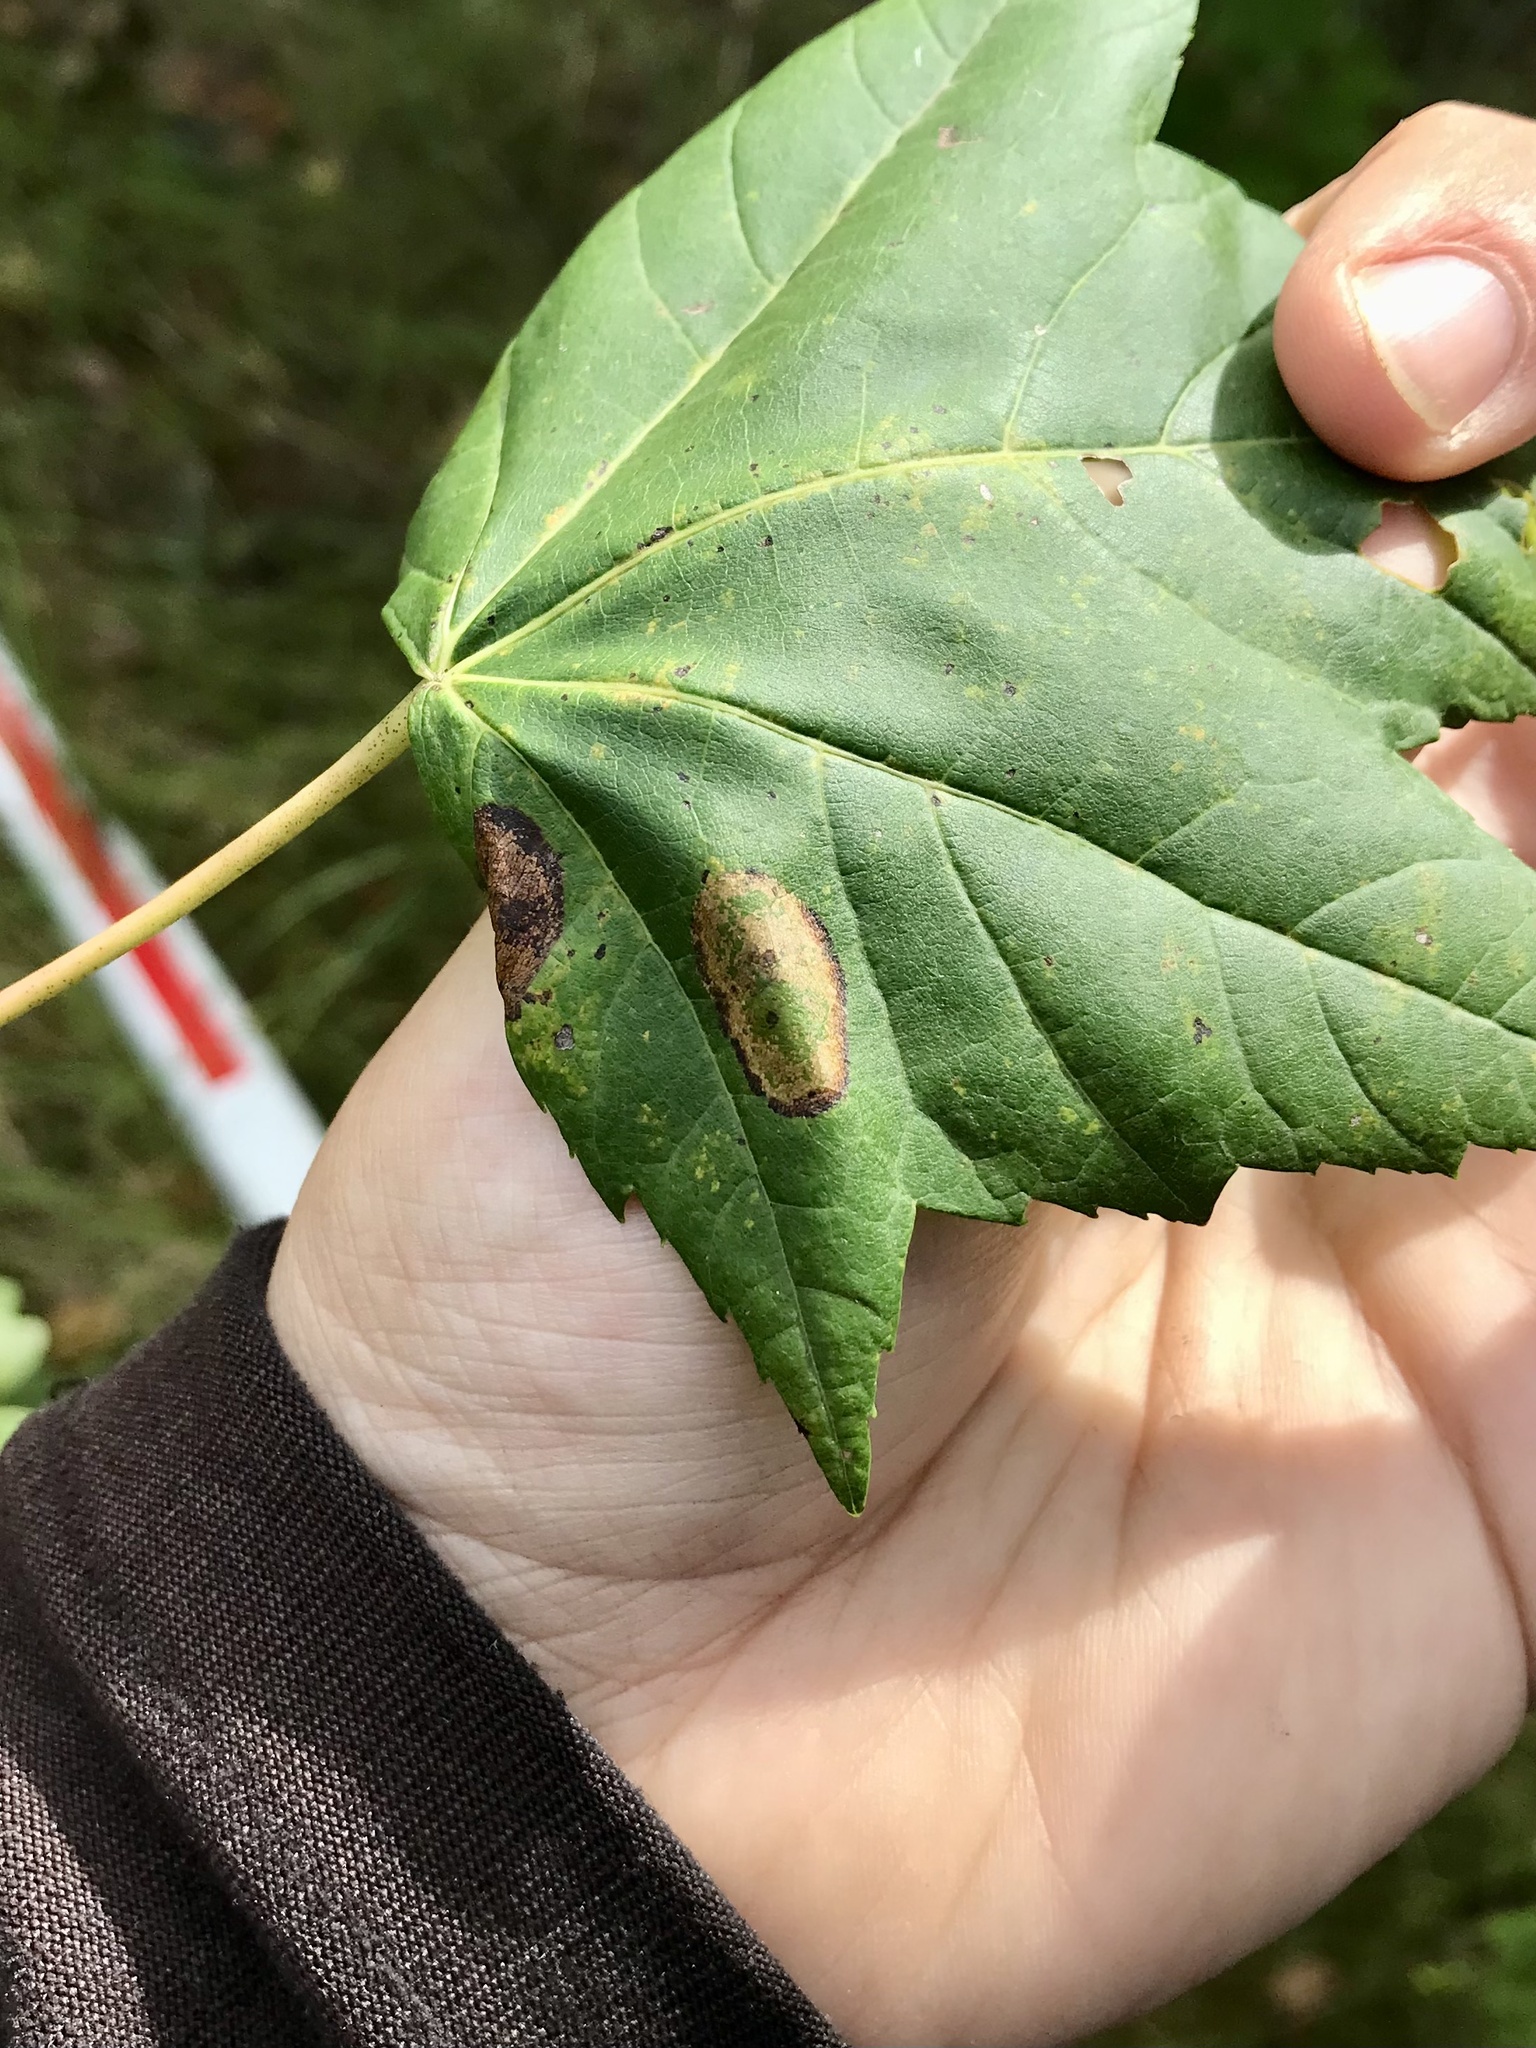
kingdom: Animalia
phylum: Arthropoda
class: Insecta
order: Lepidoptera
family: Gracillariidae
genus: Phyllonorycter
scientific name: Phyllonorycter trinotella
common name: Red maple blotchminer
